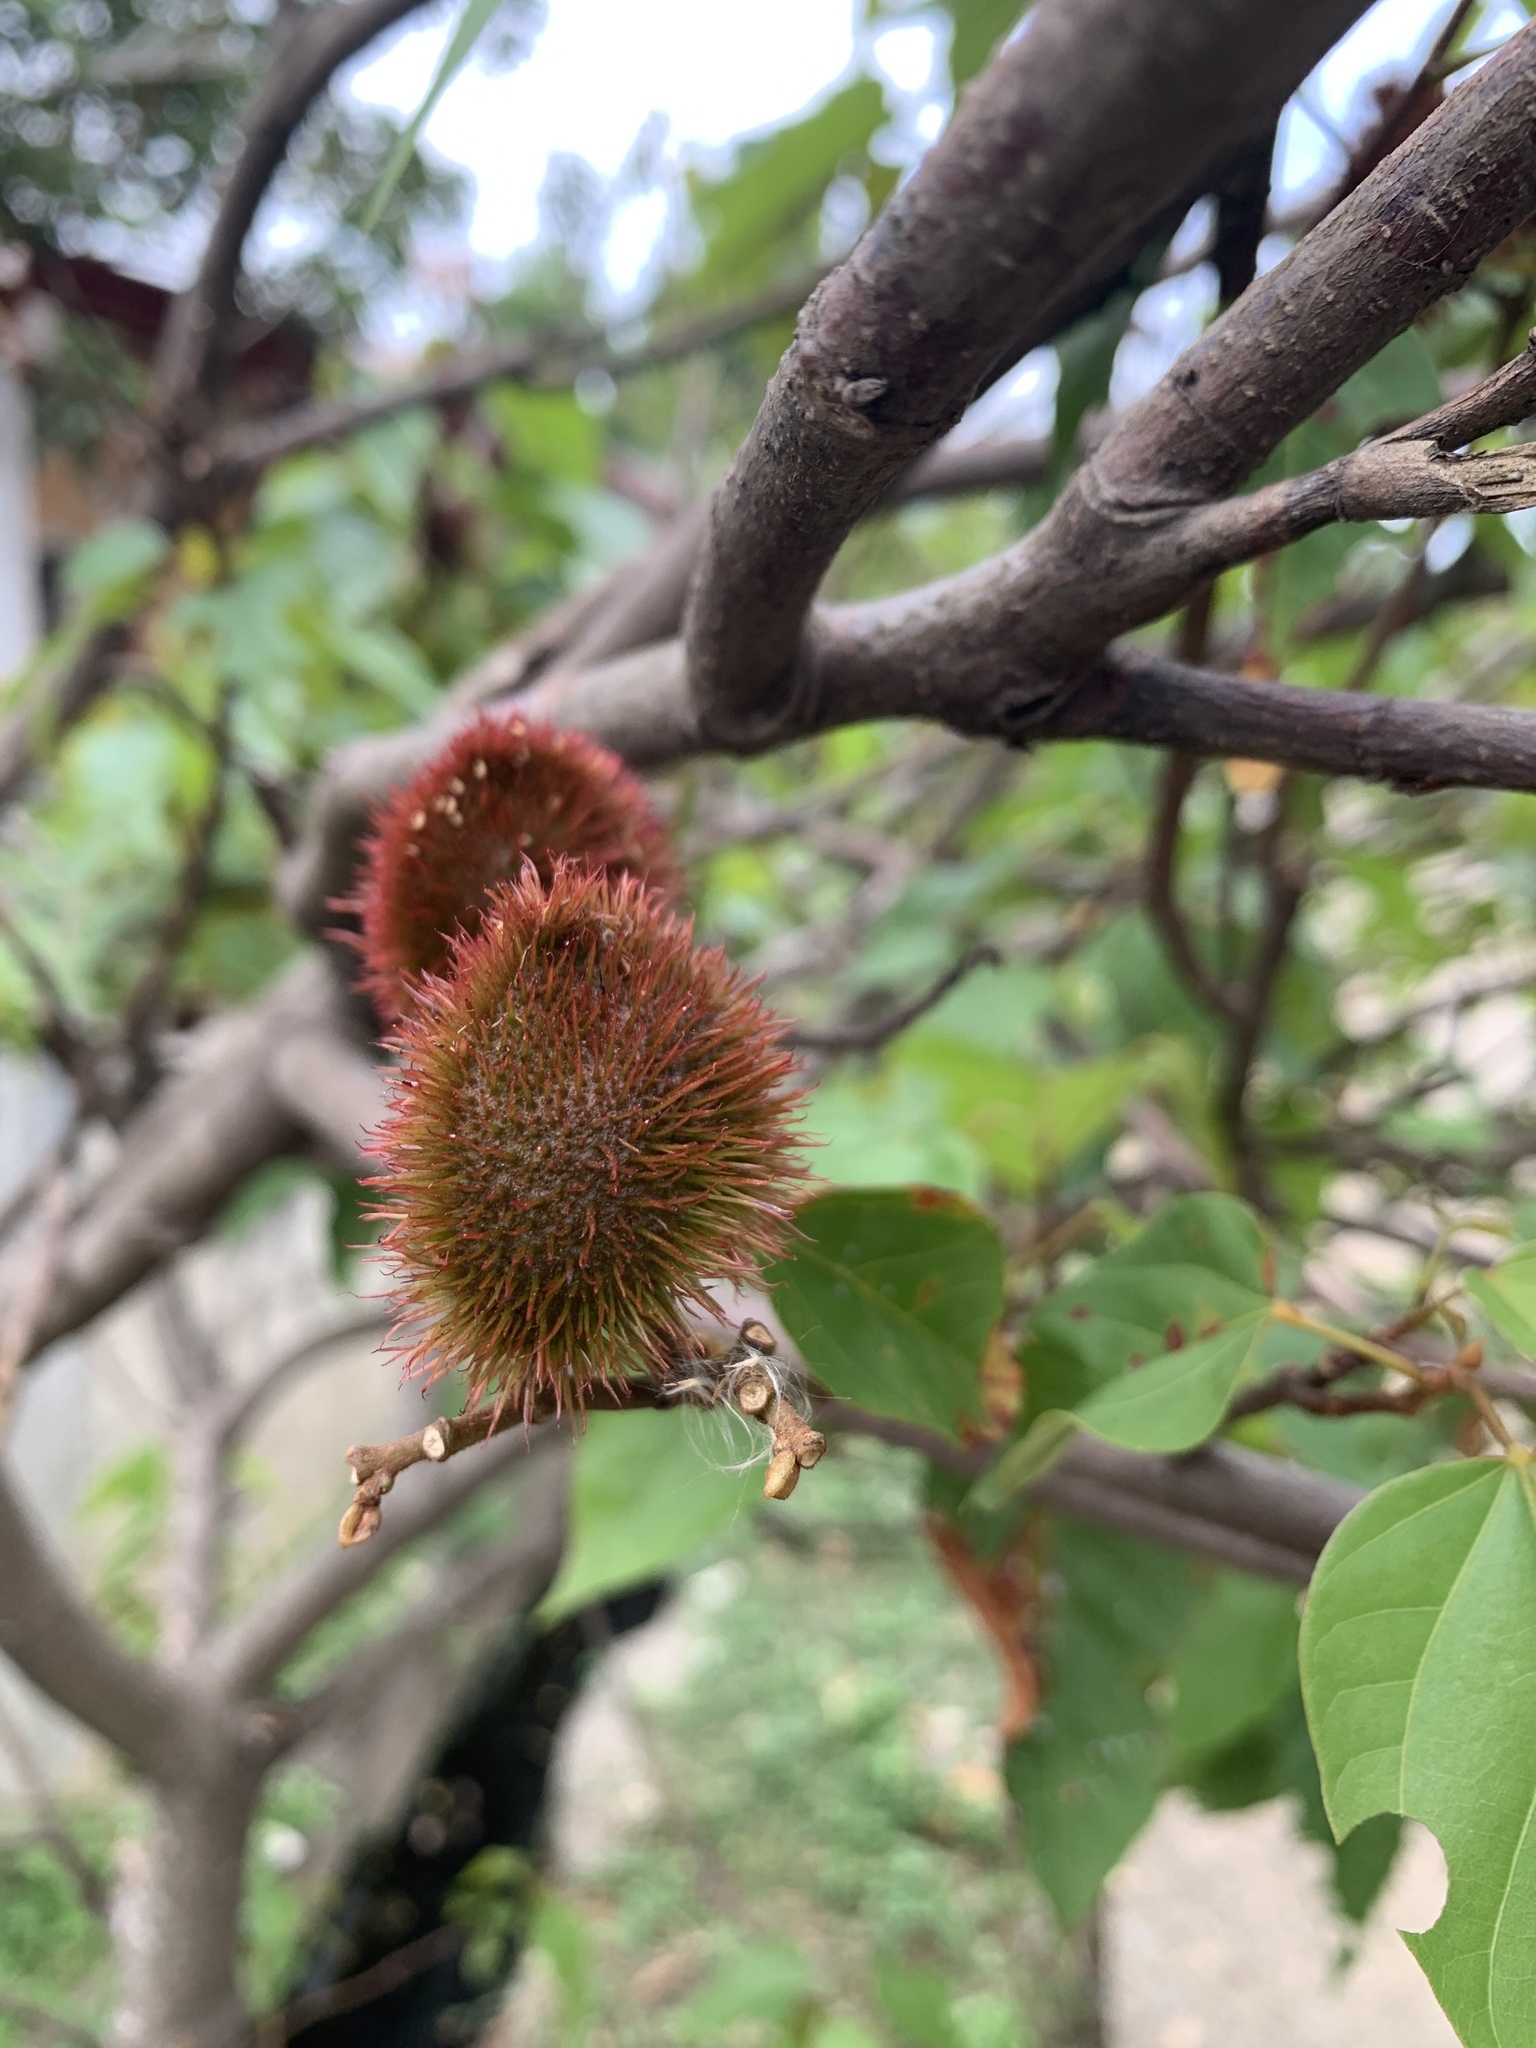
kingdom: Plantae
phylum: Tracheophyta
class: Magnoliopsida
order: Malvales
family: Bixaceae
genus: Bixa
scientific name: Bixa orellana
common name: Lipsticktree
